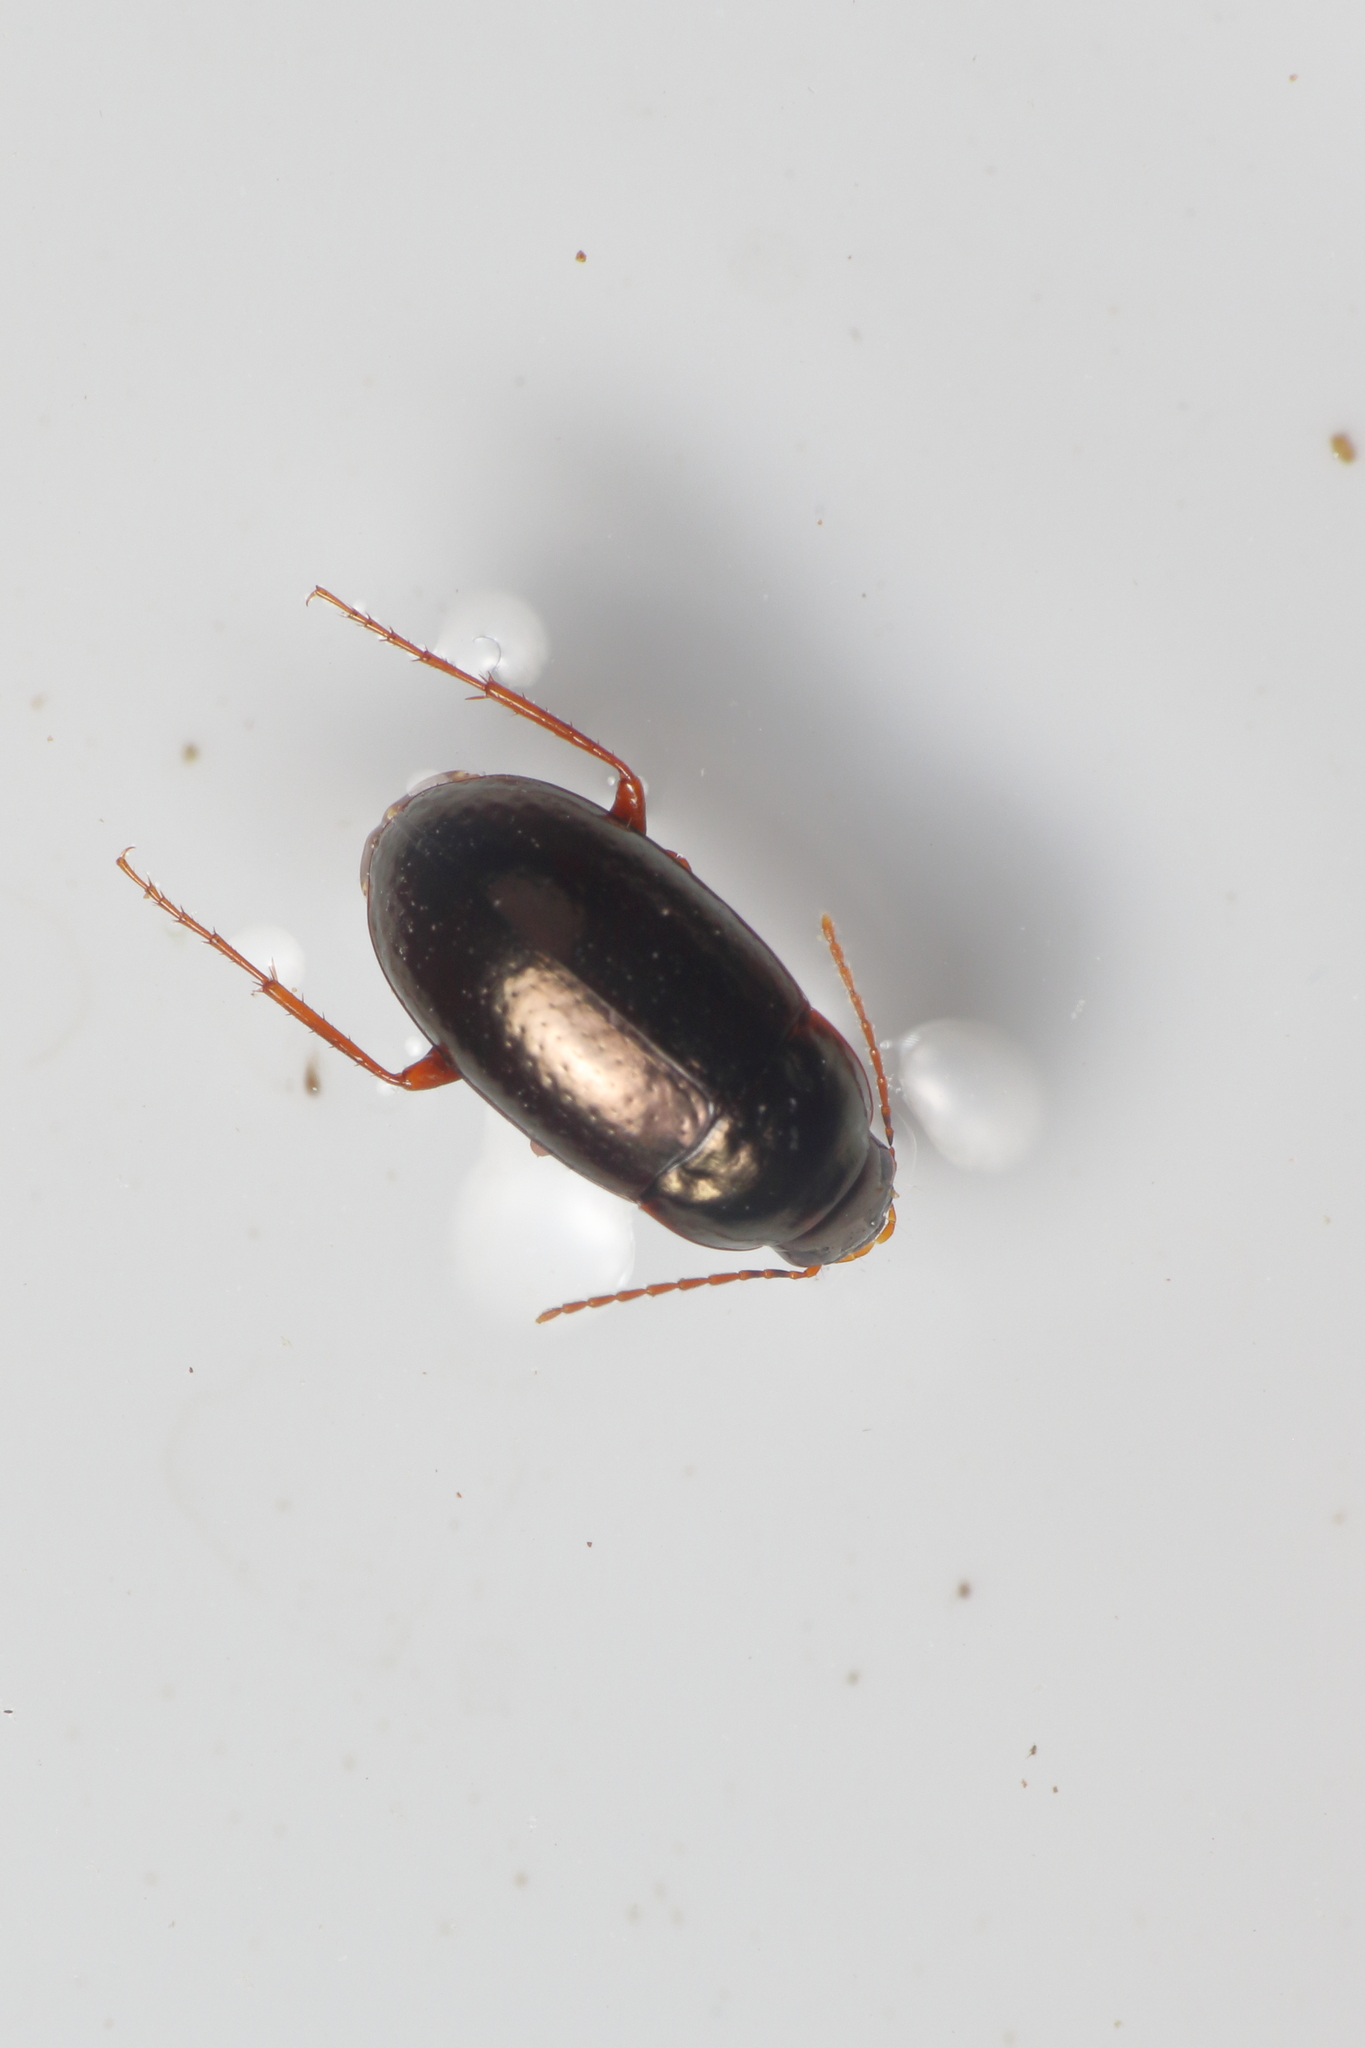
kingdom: Animalia
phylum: Arthropoda
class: Insecta
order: Coleoptera
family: Carabidae
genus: Amarotypus
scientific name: Amarotypus edwardsii
